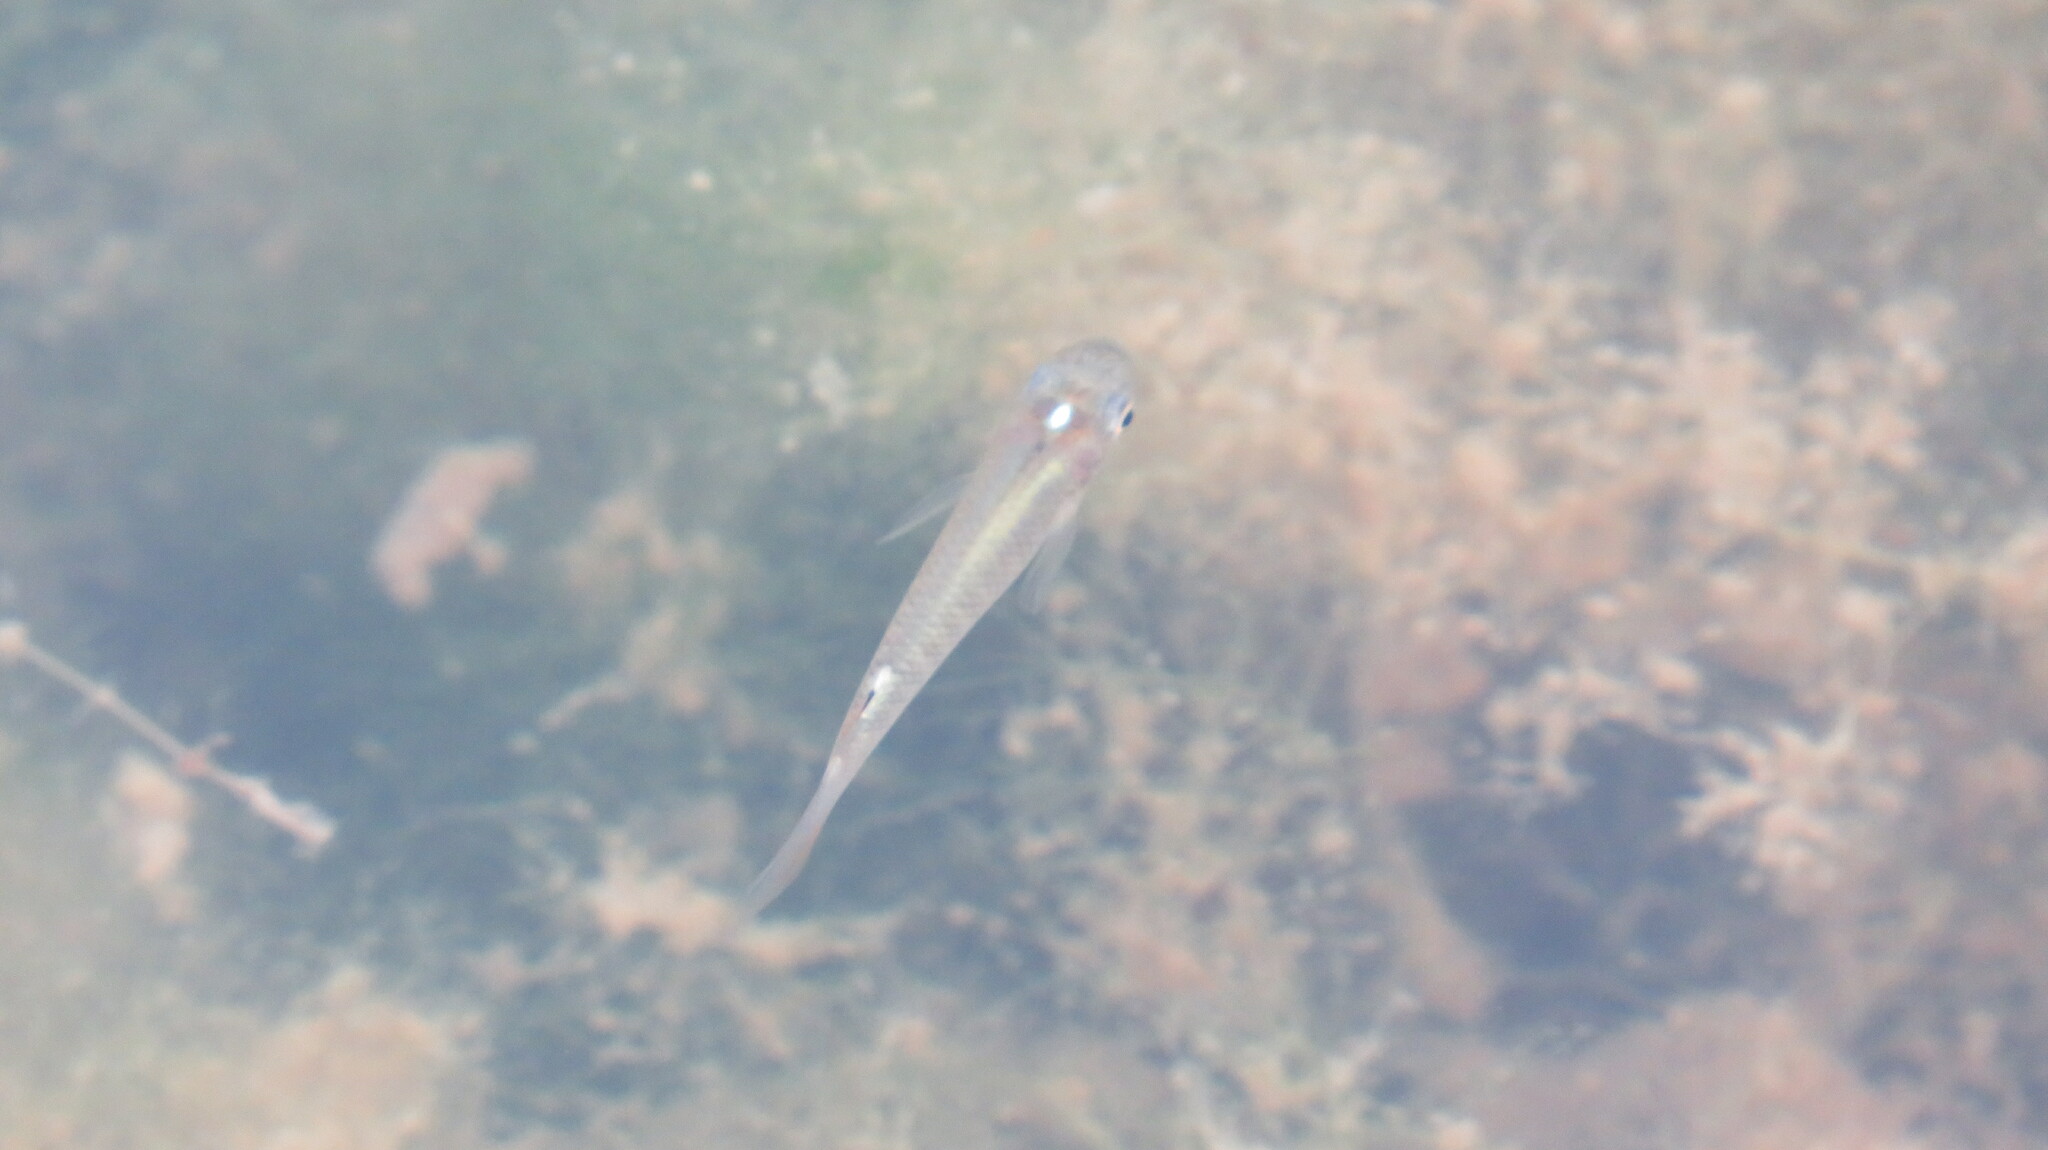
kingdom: Animalia
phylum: Chordata
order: Cyprinodontiformes
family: Aplocheilidae
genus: Aplocheilus
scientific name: Aplocheilus panchax
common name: Blue panchax
